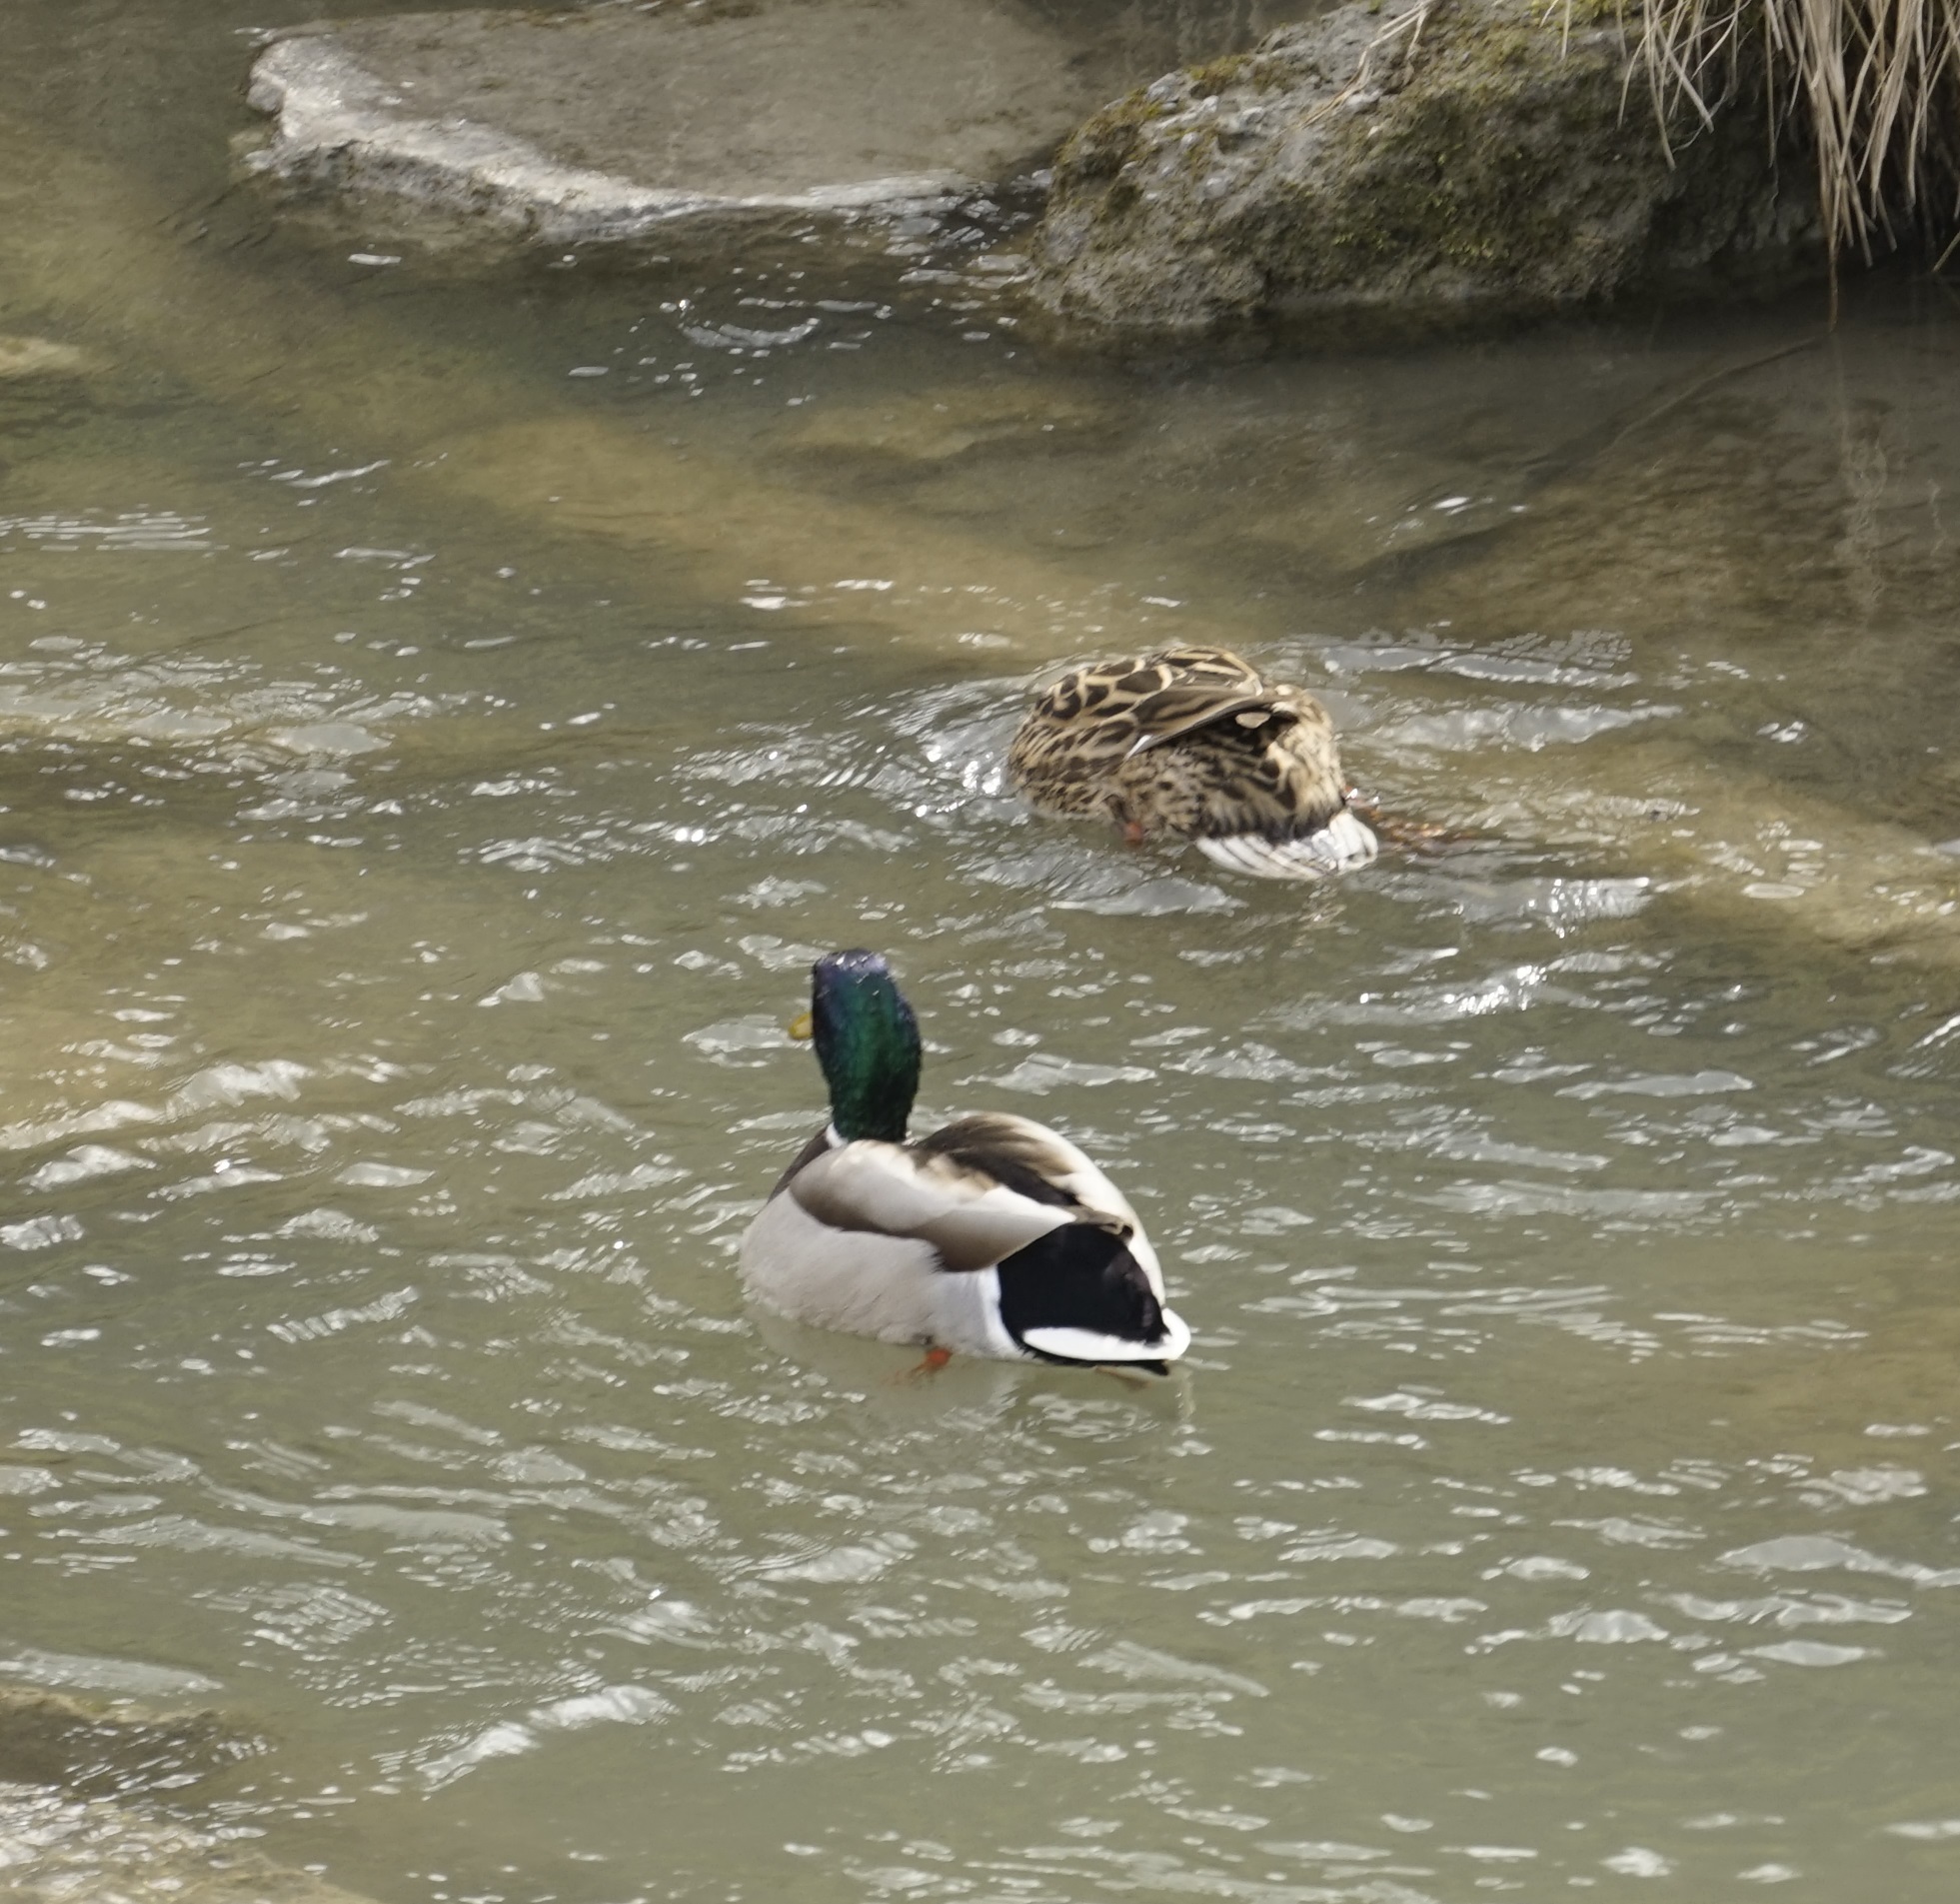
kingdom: Animalia
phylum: Chordata
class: Aves
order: Anseriformes
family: Anatidae
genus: Anas
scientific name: Anas platyrhynchos
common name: Mallard
